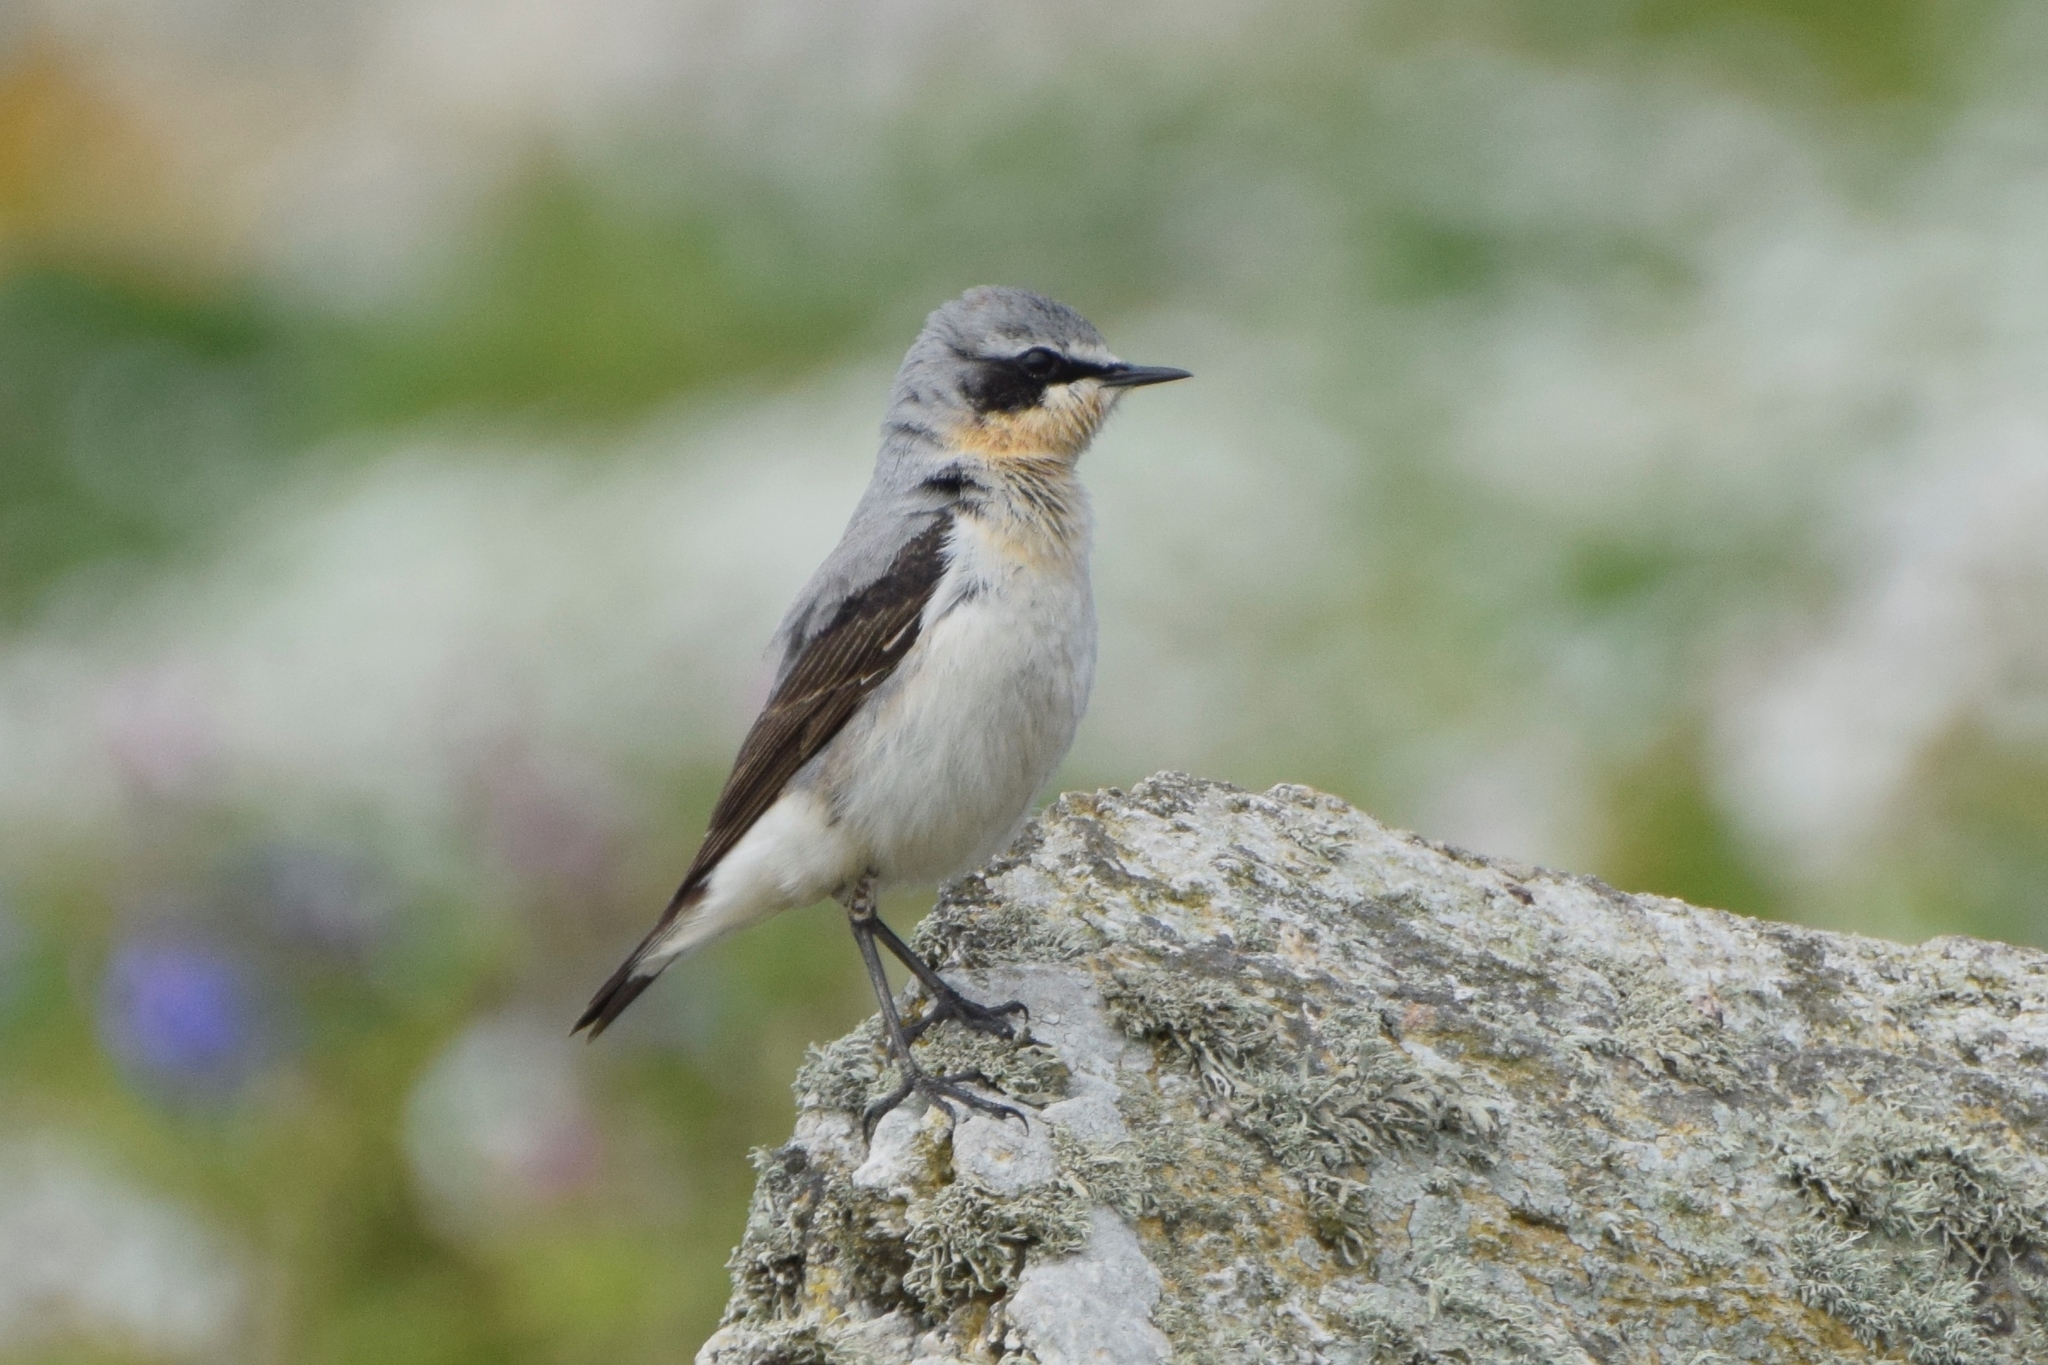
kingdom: Animalia
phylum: Chordata
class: Aves
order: Passeriformes
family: Muscicapidae
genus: Oenanthe
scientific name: Oenanthe oenanthe
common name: Northern wheatear
